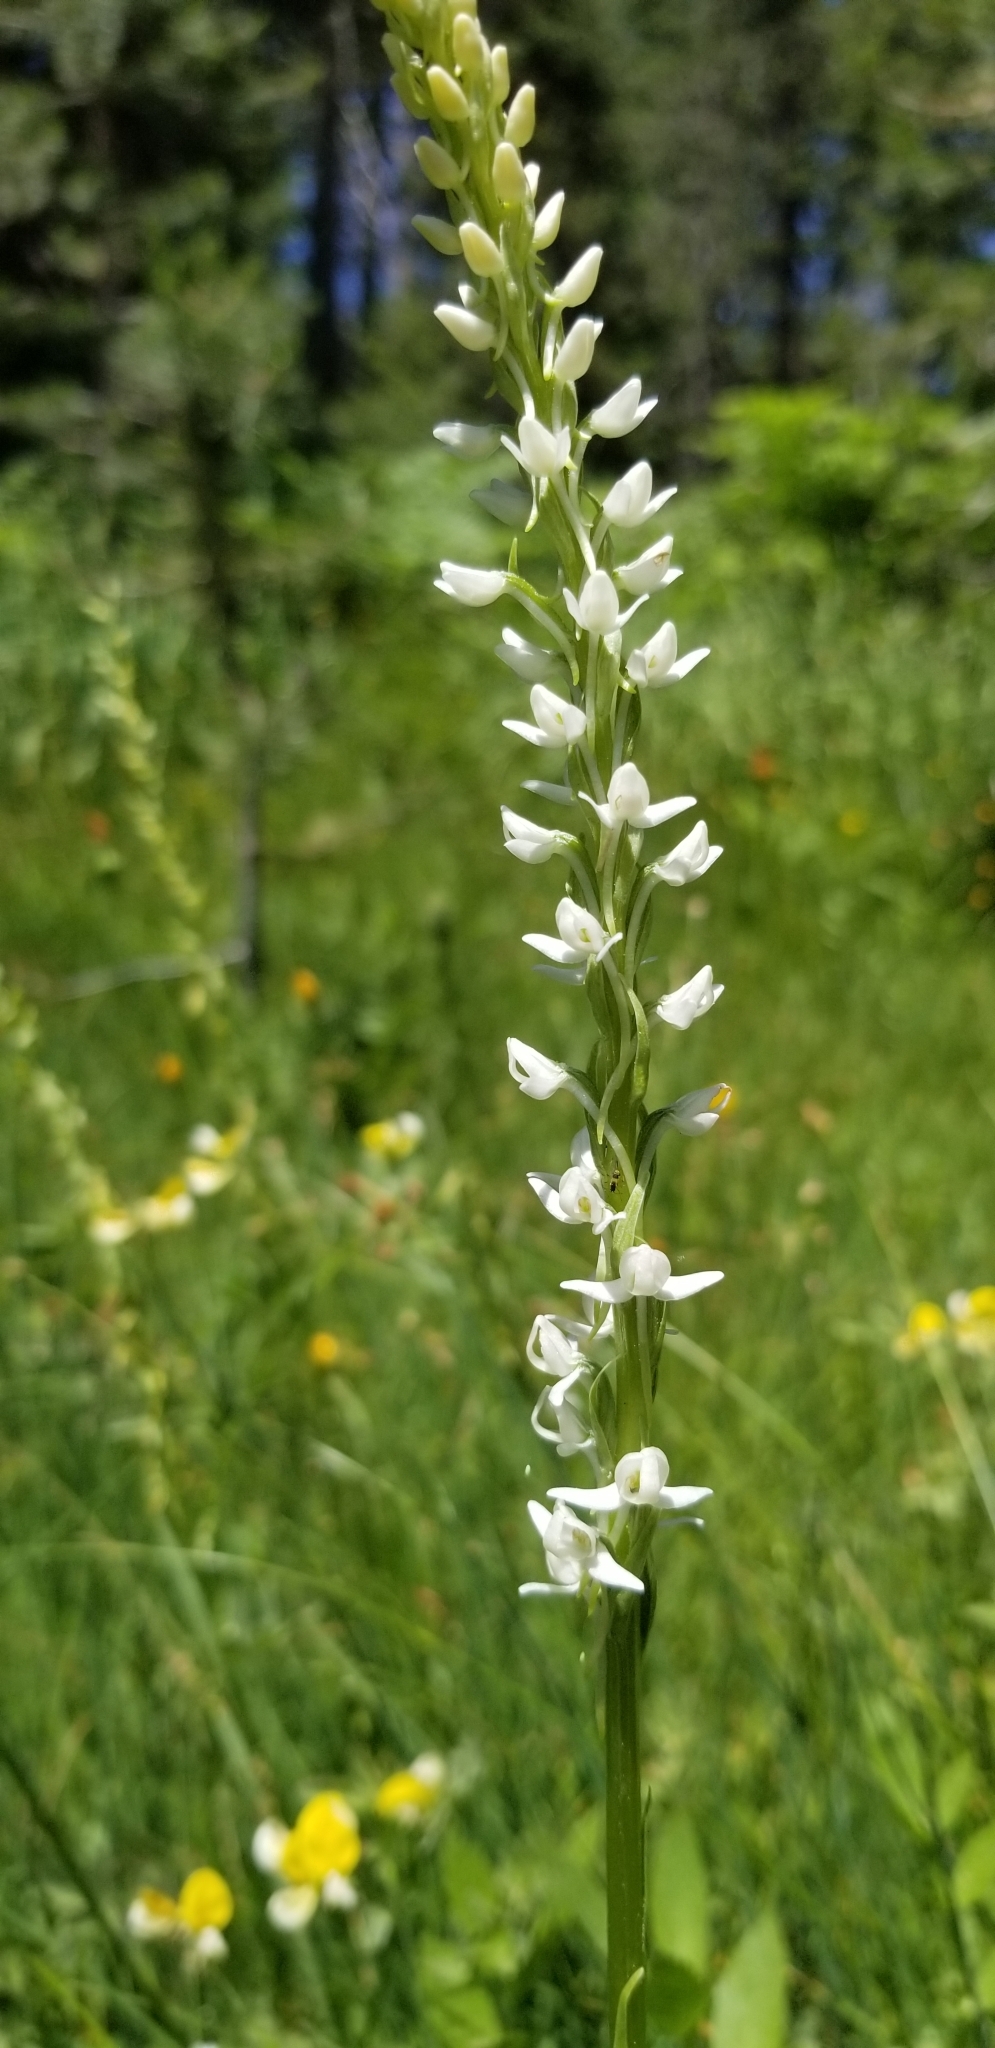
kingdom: Plantae
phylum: Tracheophyta
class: Liliopsida
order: Asparagales
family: Orchidaceae
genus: Platanthera
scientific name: Platanthera dilatata
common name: Bog candles
